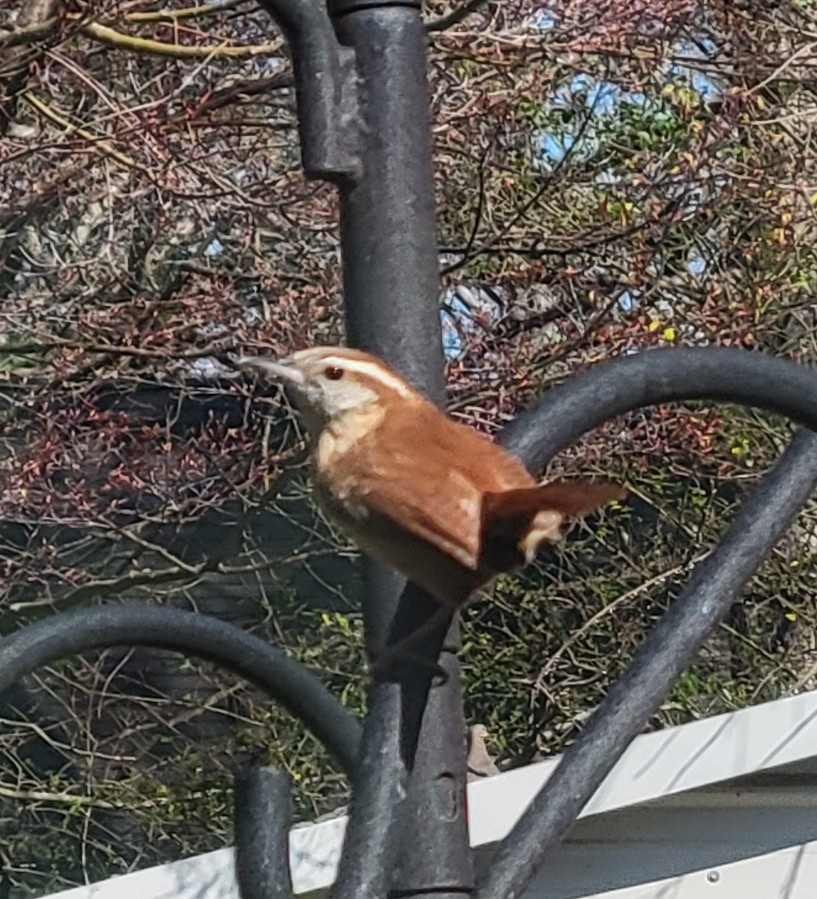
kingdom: Animalia
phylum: Chordata
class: Aves
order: Passeriformes
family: Troglodytidae
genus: Thryothorus
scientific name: Thryothorus ludovicianus
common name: Carolina wren
